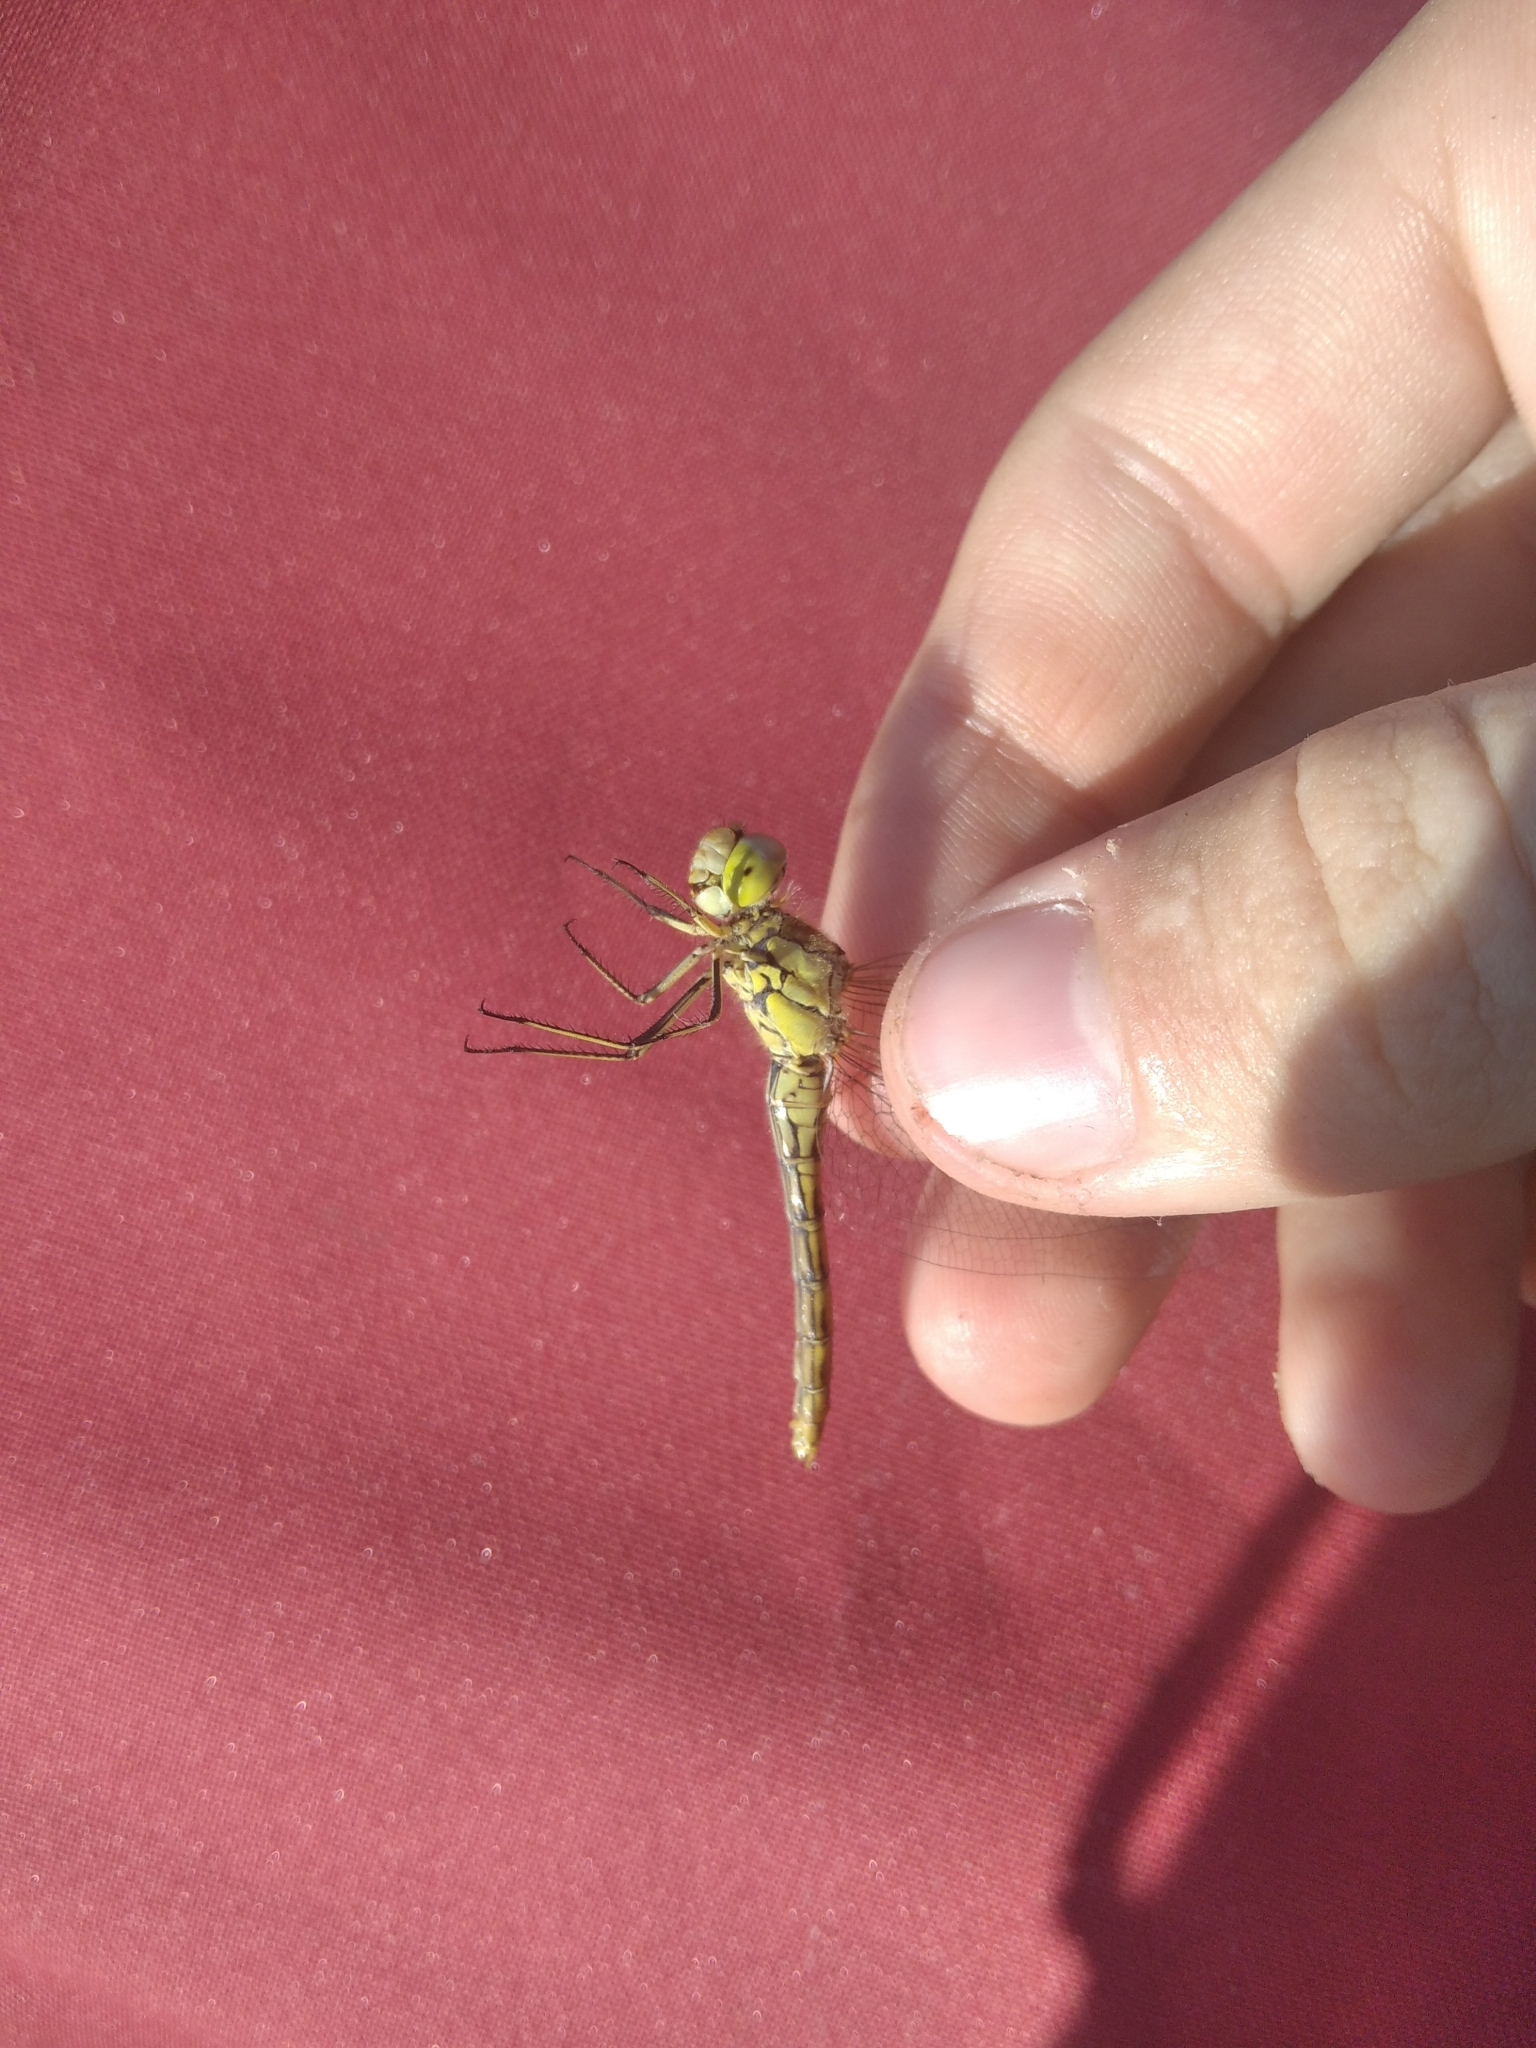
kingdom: Animalia
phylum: Arthropoda
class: Insecta
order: Odonata
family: Libellulidae
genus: Sympetrum
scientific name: Sympetrum vulgatum
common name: Vagrant darter
